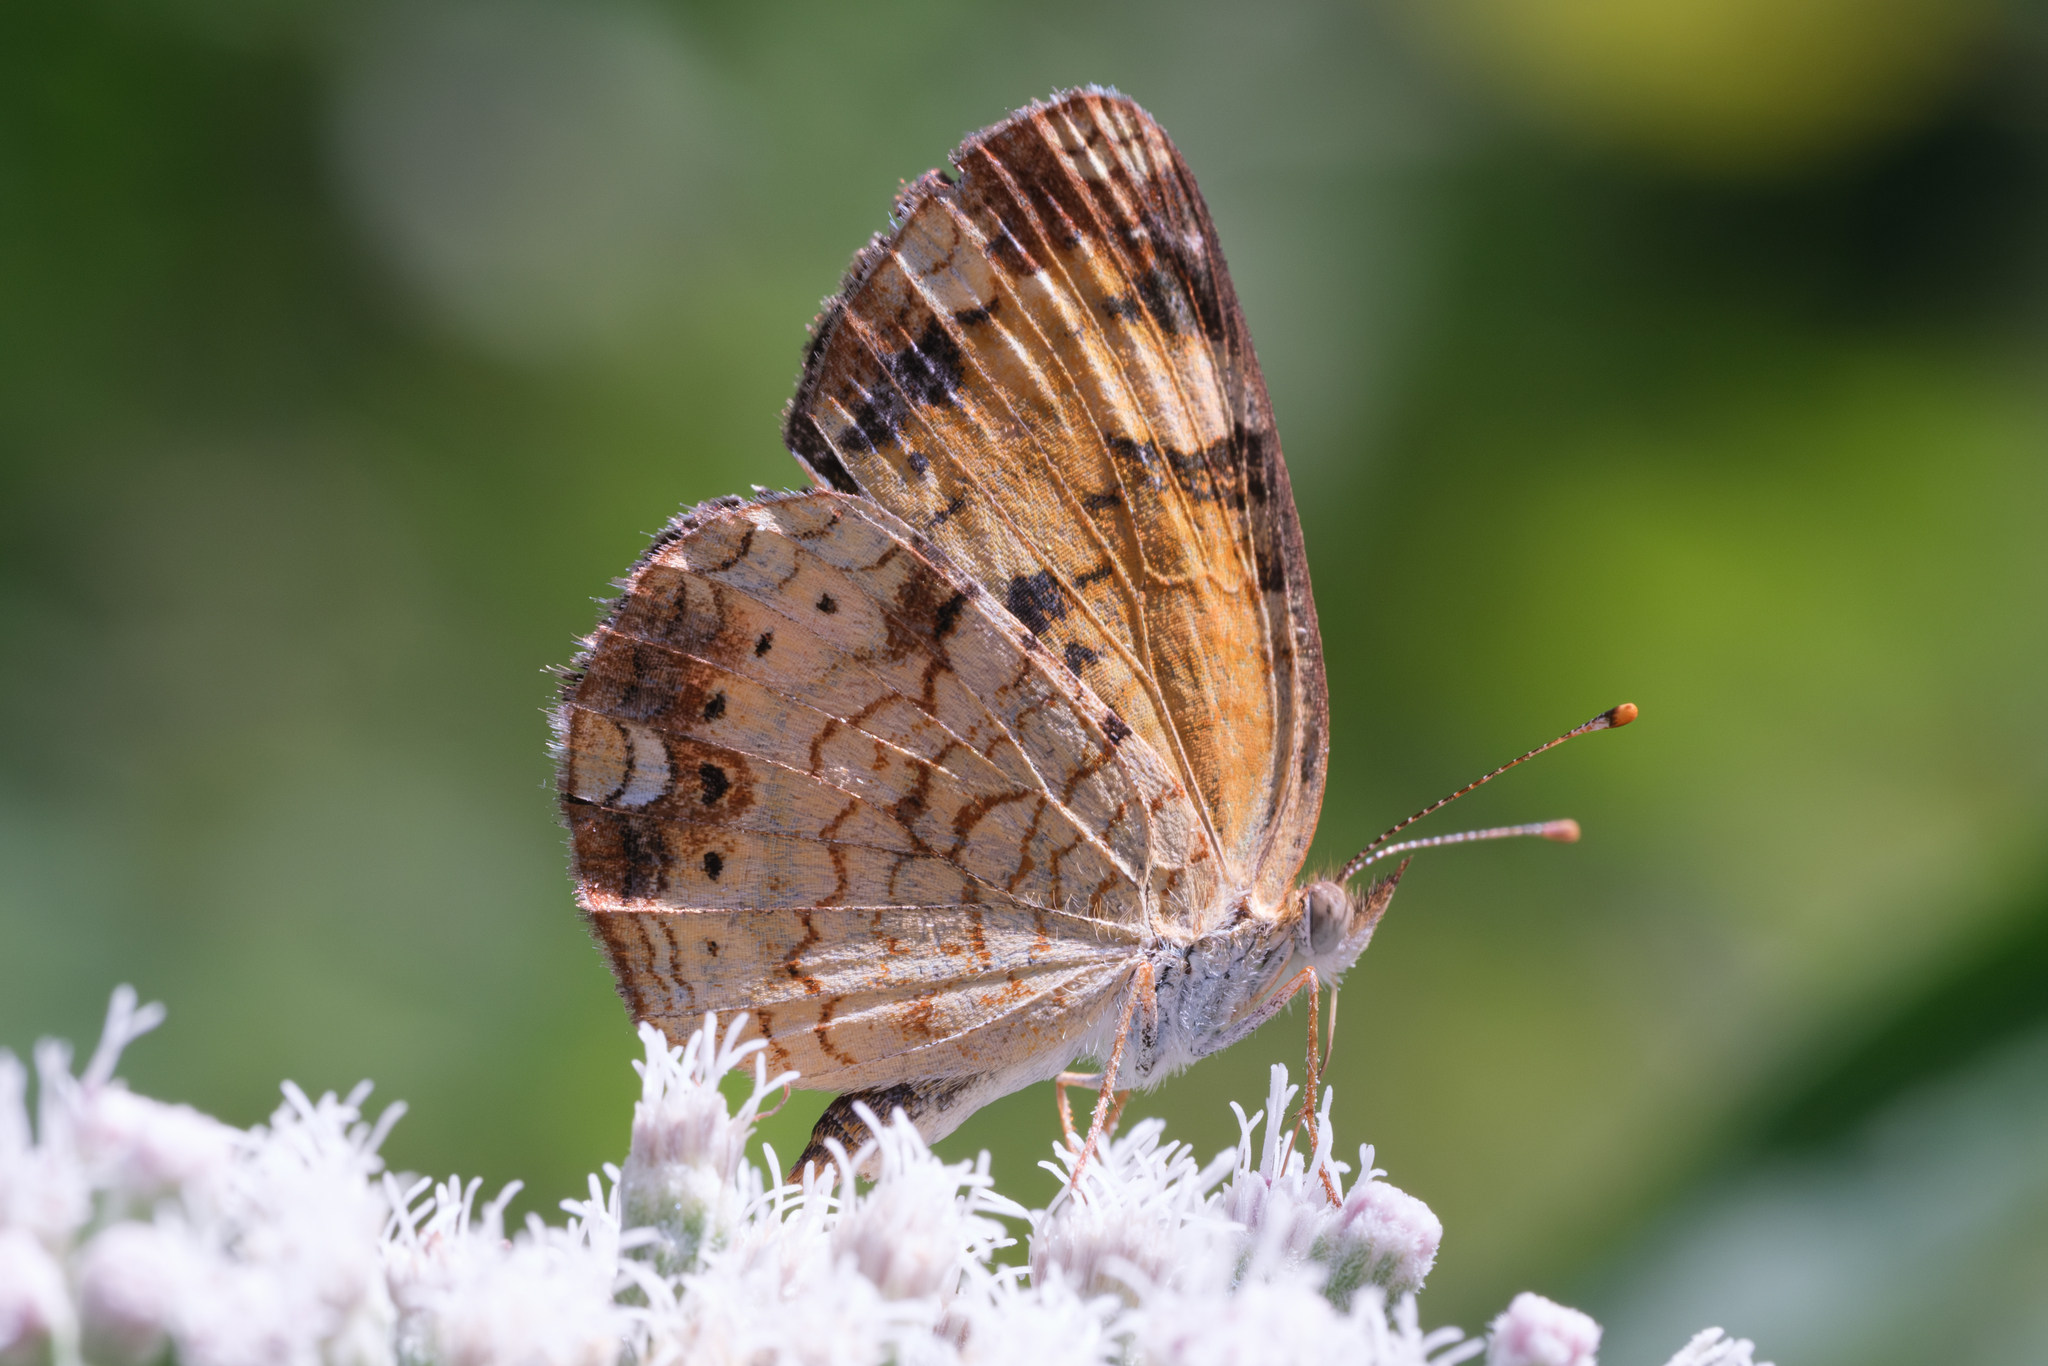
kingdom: Animalia
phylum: Arthropoda
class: Insecta
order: Lepidoptera
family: Nymphalidae
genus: Phyciodes
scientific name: Phyciodes tharos
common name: Pearl crescent
